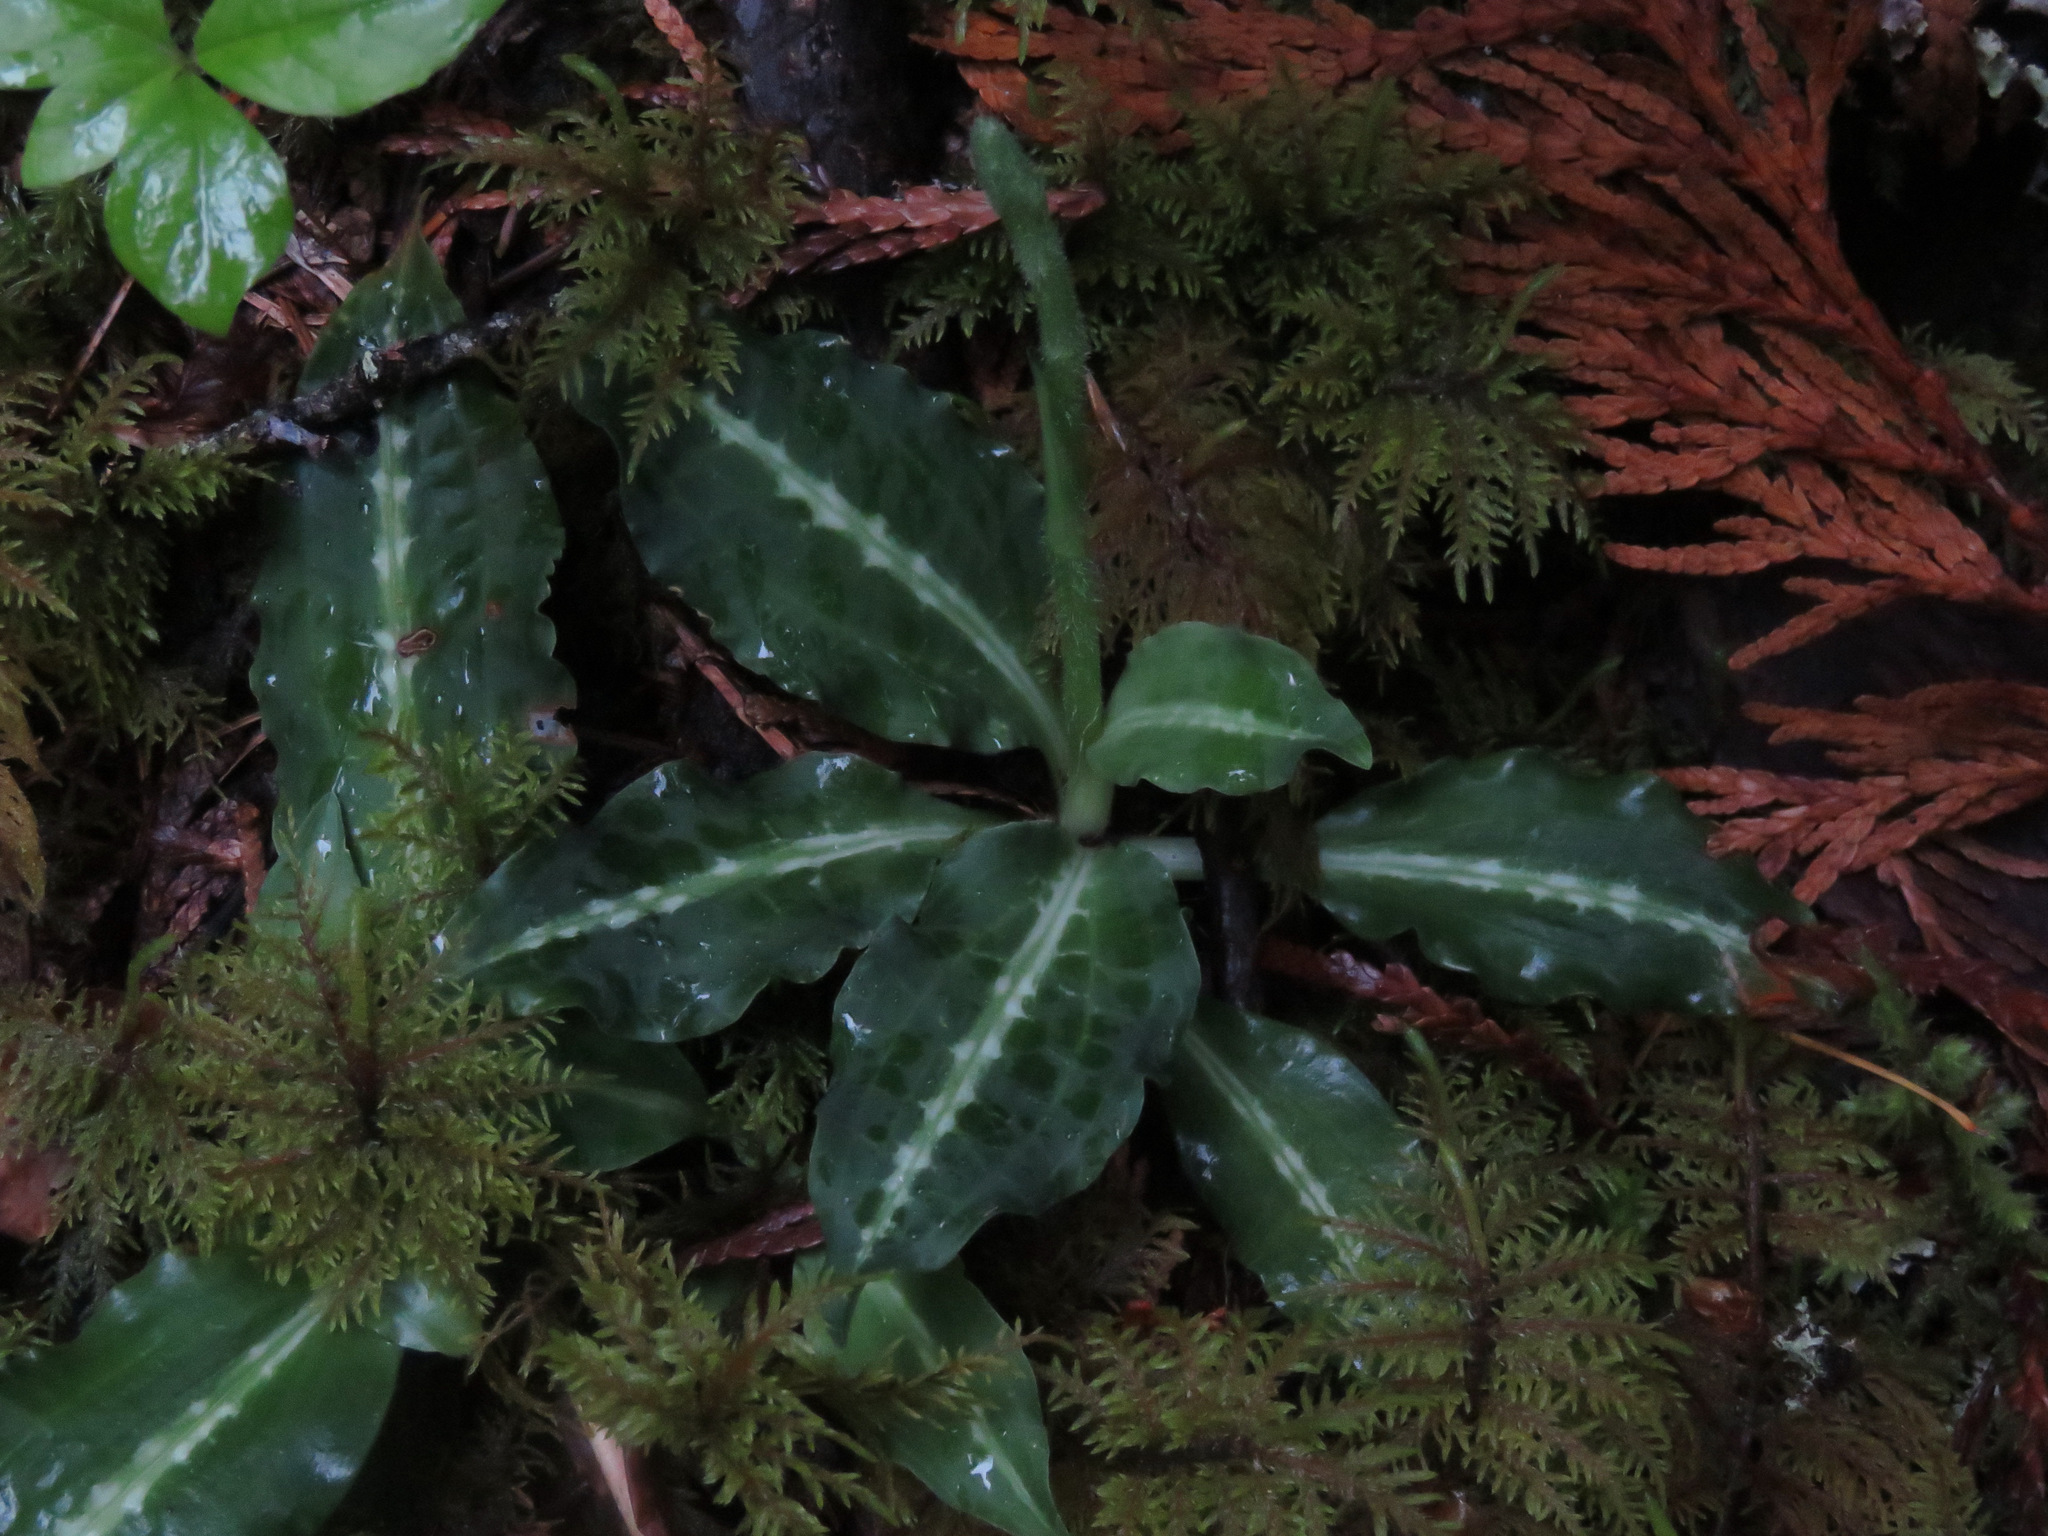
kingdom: Plantae
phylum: Tracheophyta
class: Liliopsida
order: Asparagales
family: Orchidaceae
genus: Goodyera
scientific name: Goodyera oblongifolia
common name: Giant rattlesnake-plantain
